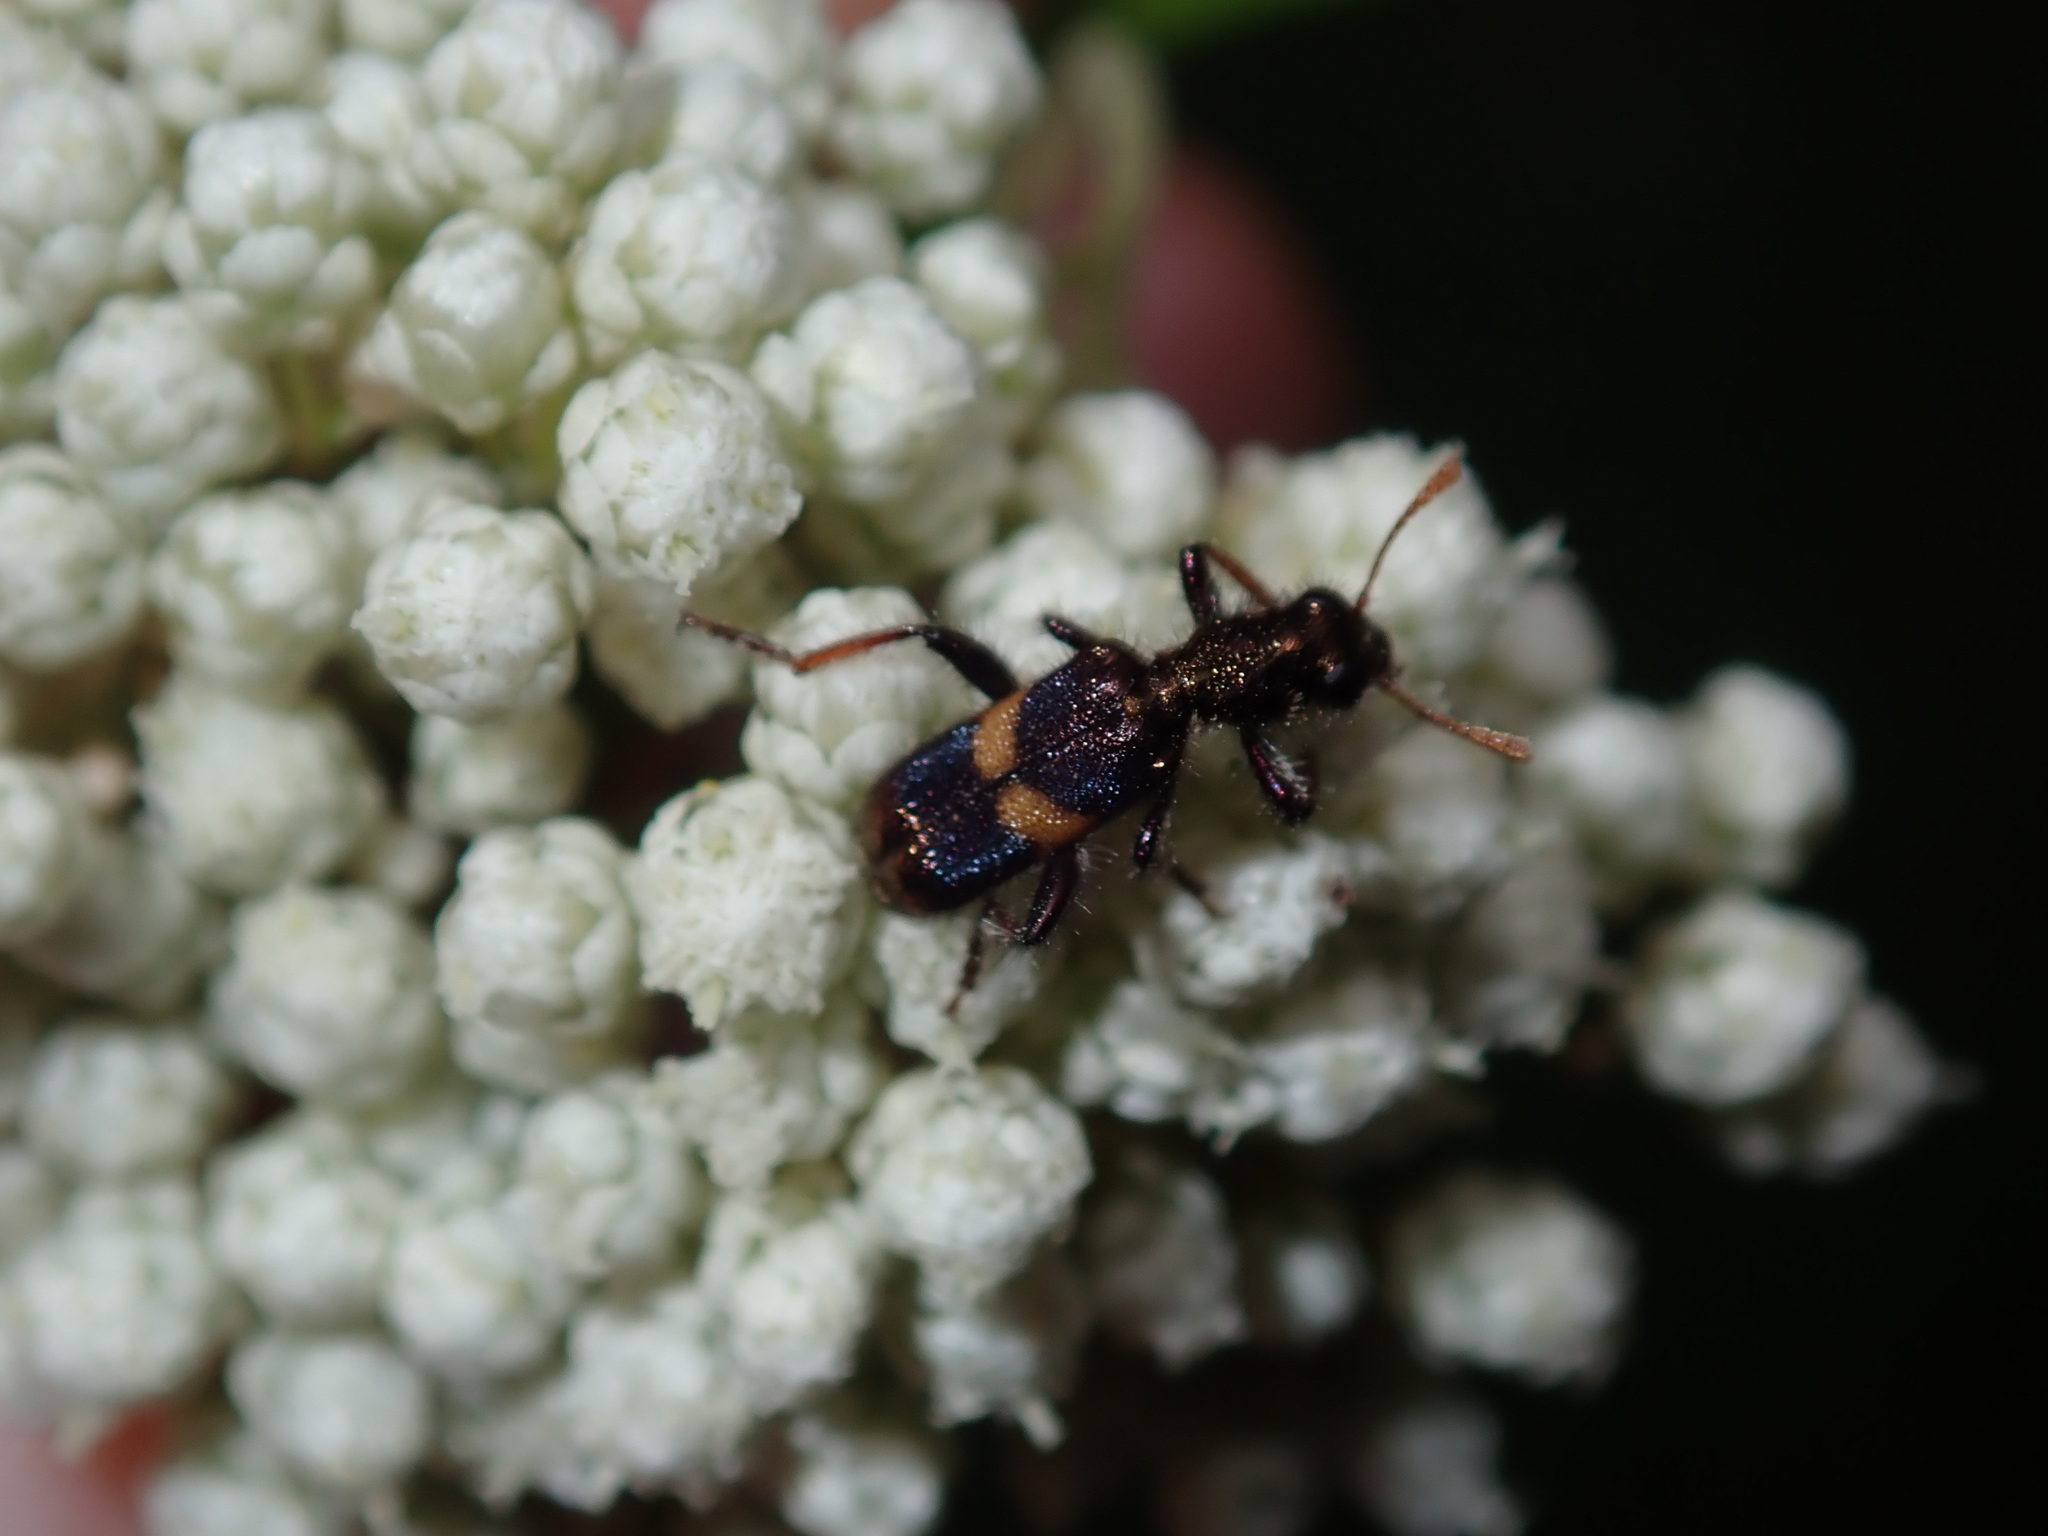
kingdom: Animalia
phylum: Arthropoda
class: Insecta
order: Coleoptera
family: Cleridae
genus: Eleale
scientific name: Eleale
